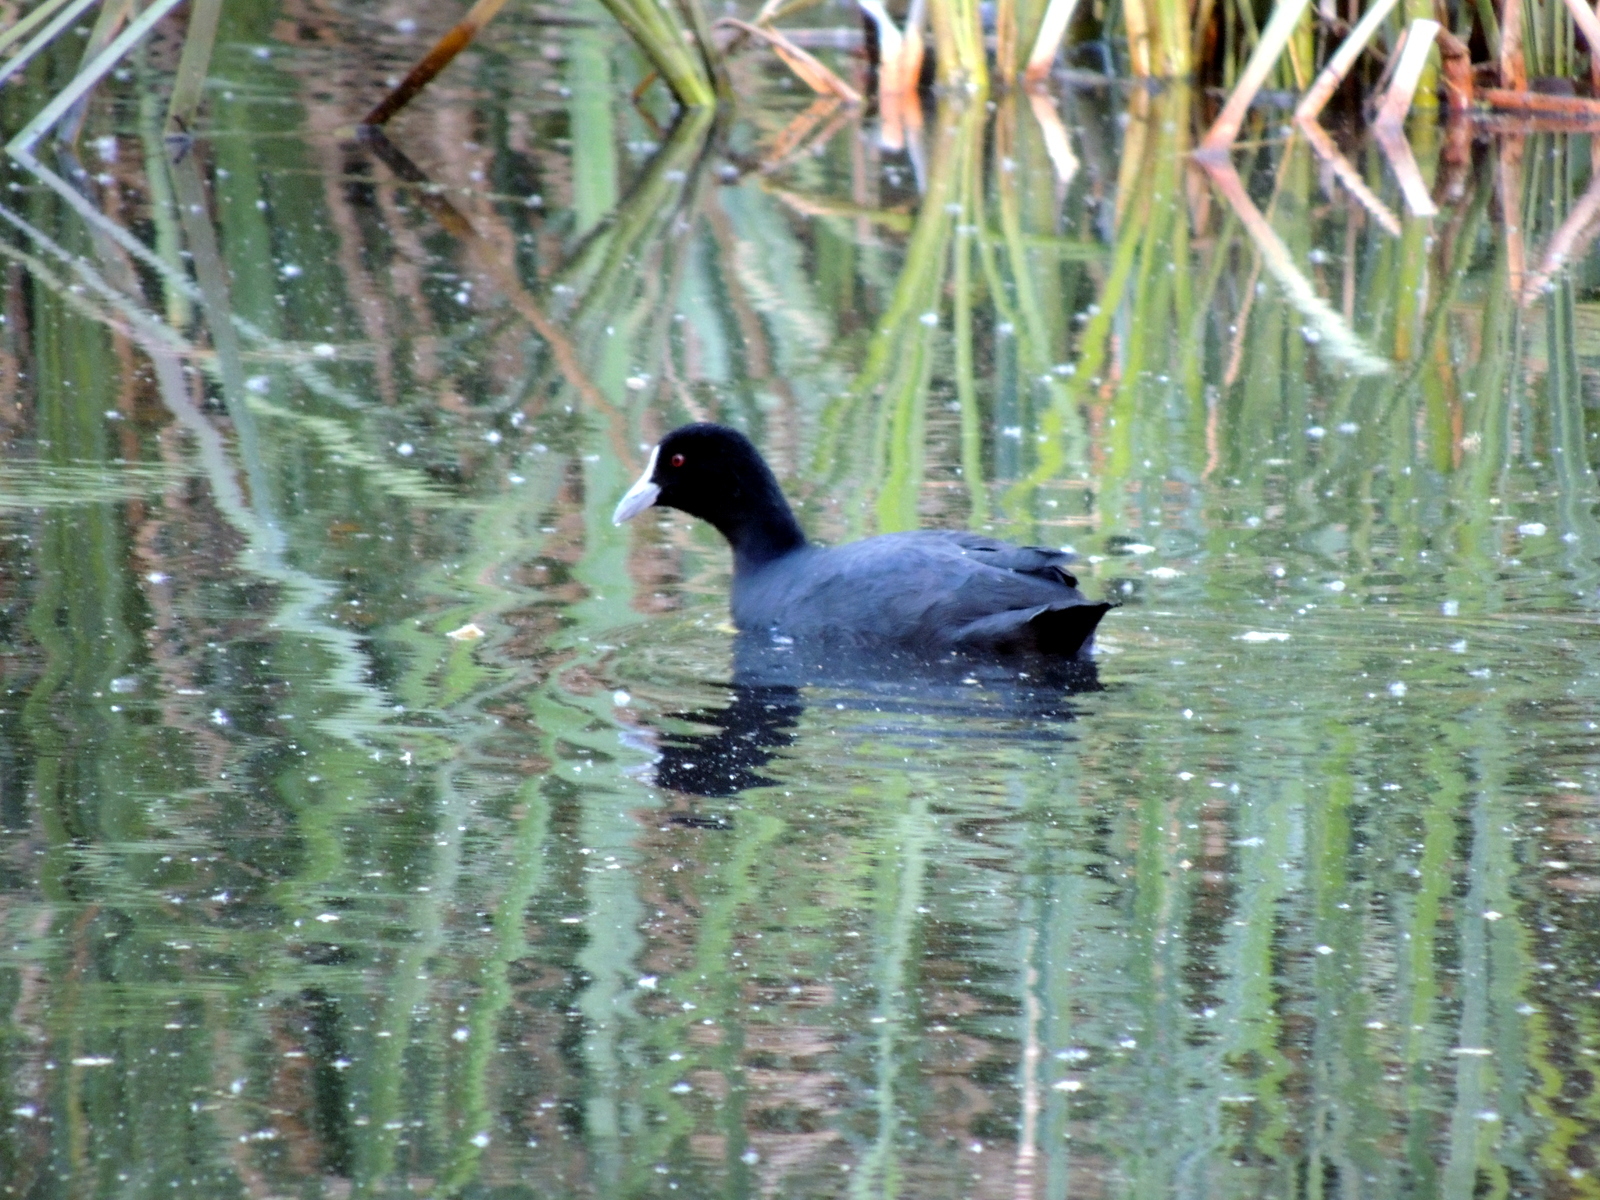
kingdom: Animalia
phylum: Chordata
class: Aves
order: Gruiformes
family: Rallidae
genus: Fulica
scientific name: Fulica atra
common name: Eurasian coot
